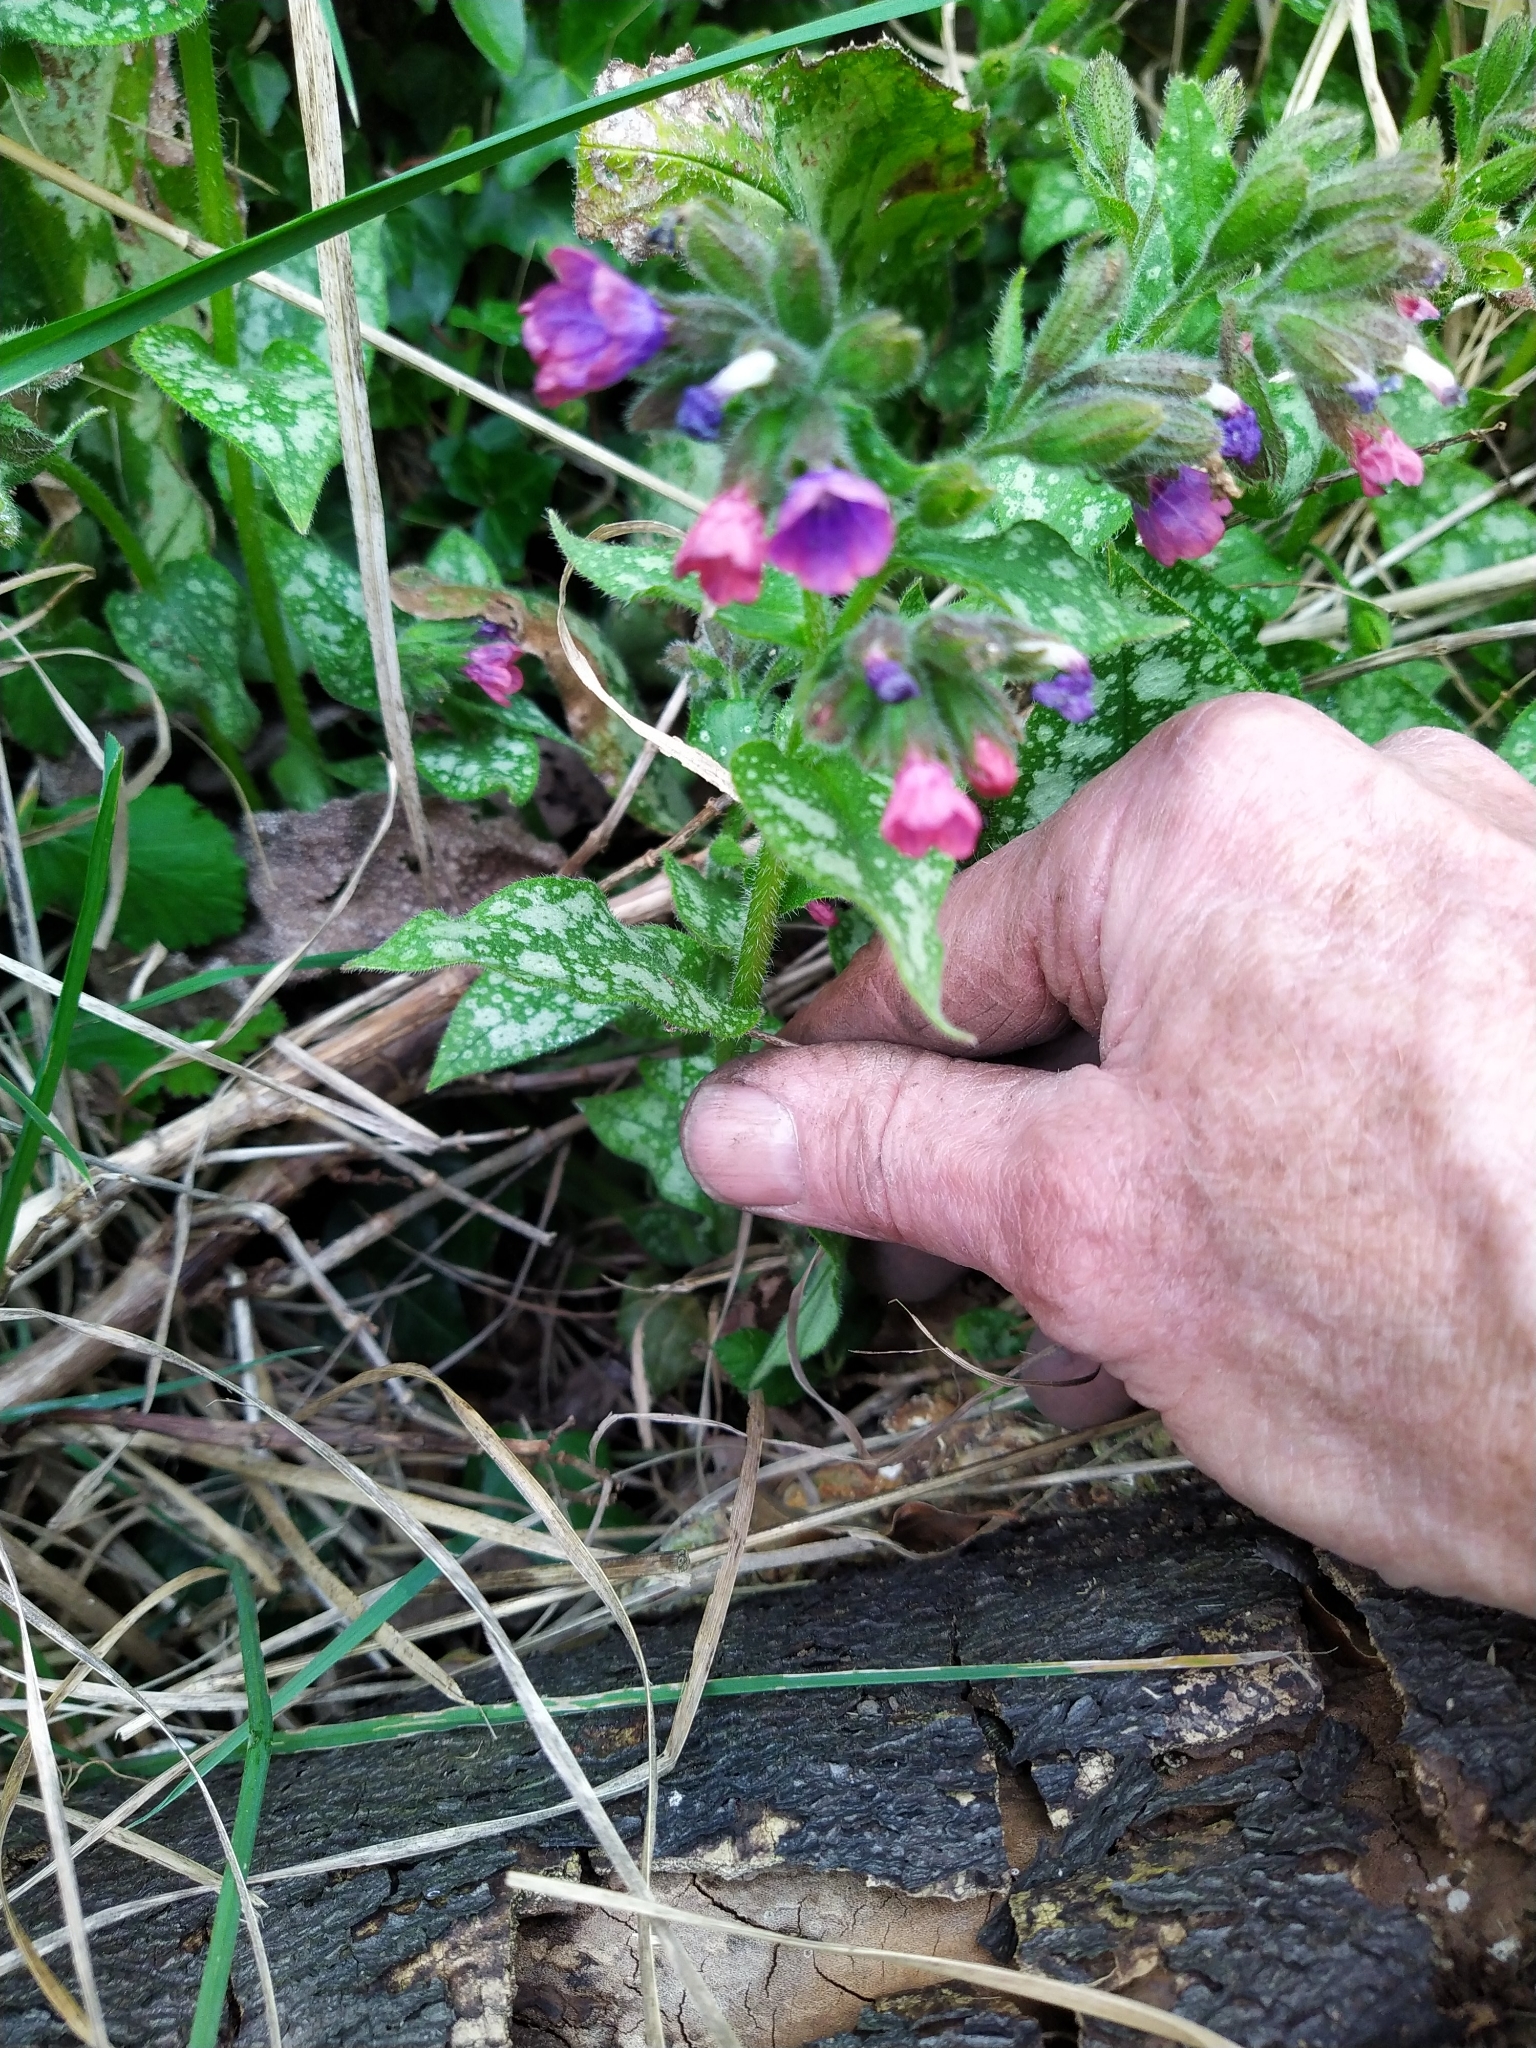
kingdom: Plantae
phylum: Tracheophyta
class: Magnoliopsida
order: Boraginales
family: Boraginaceae
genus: Pulmonaria
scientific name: Pulmonaria officinalis
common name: Lungwort
